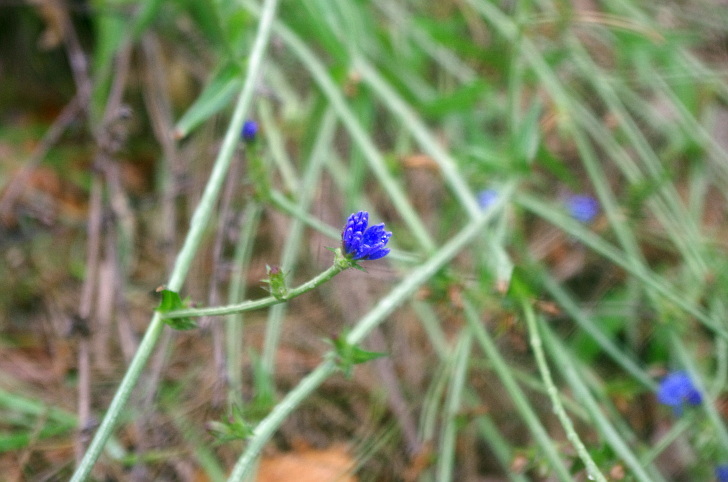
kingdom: Plantae
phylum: Tracheophyta
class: Magnoliopsida
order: Asterales
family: Asteraceae
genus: Cichorium
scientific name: Cichorium intybus
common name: Chicory
